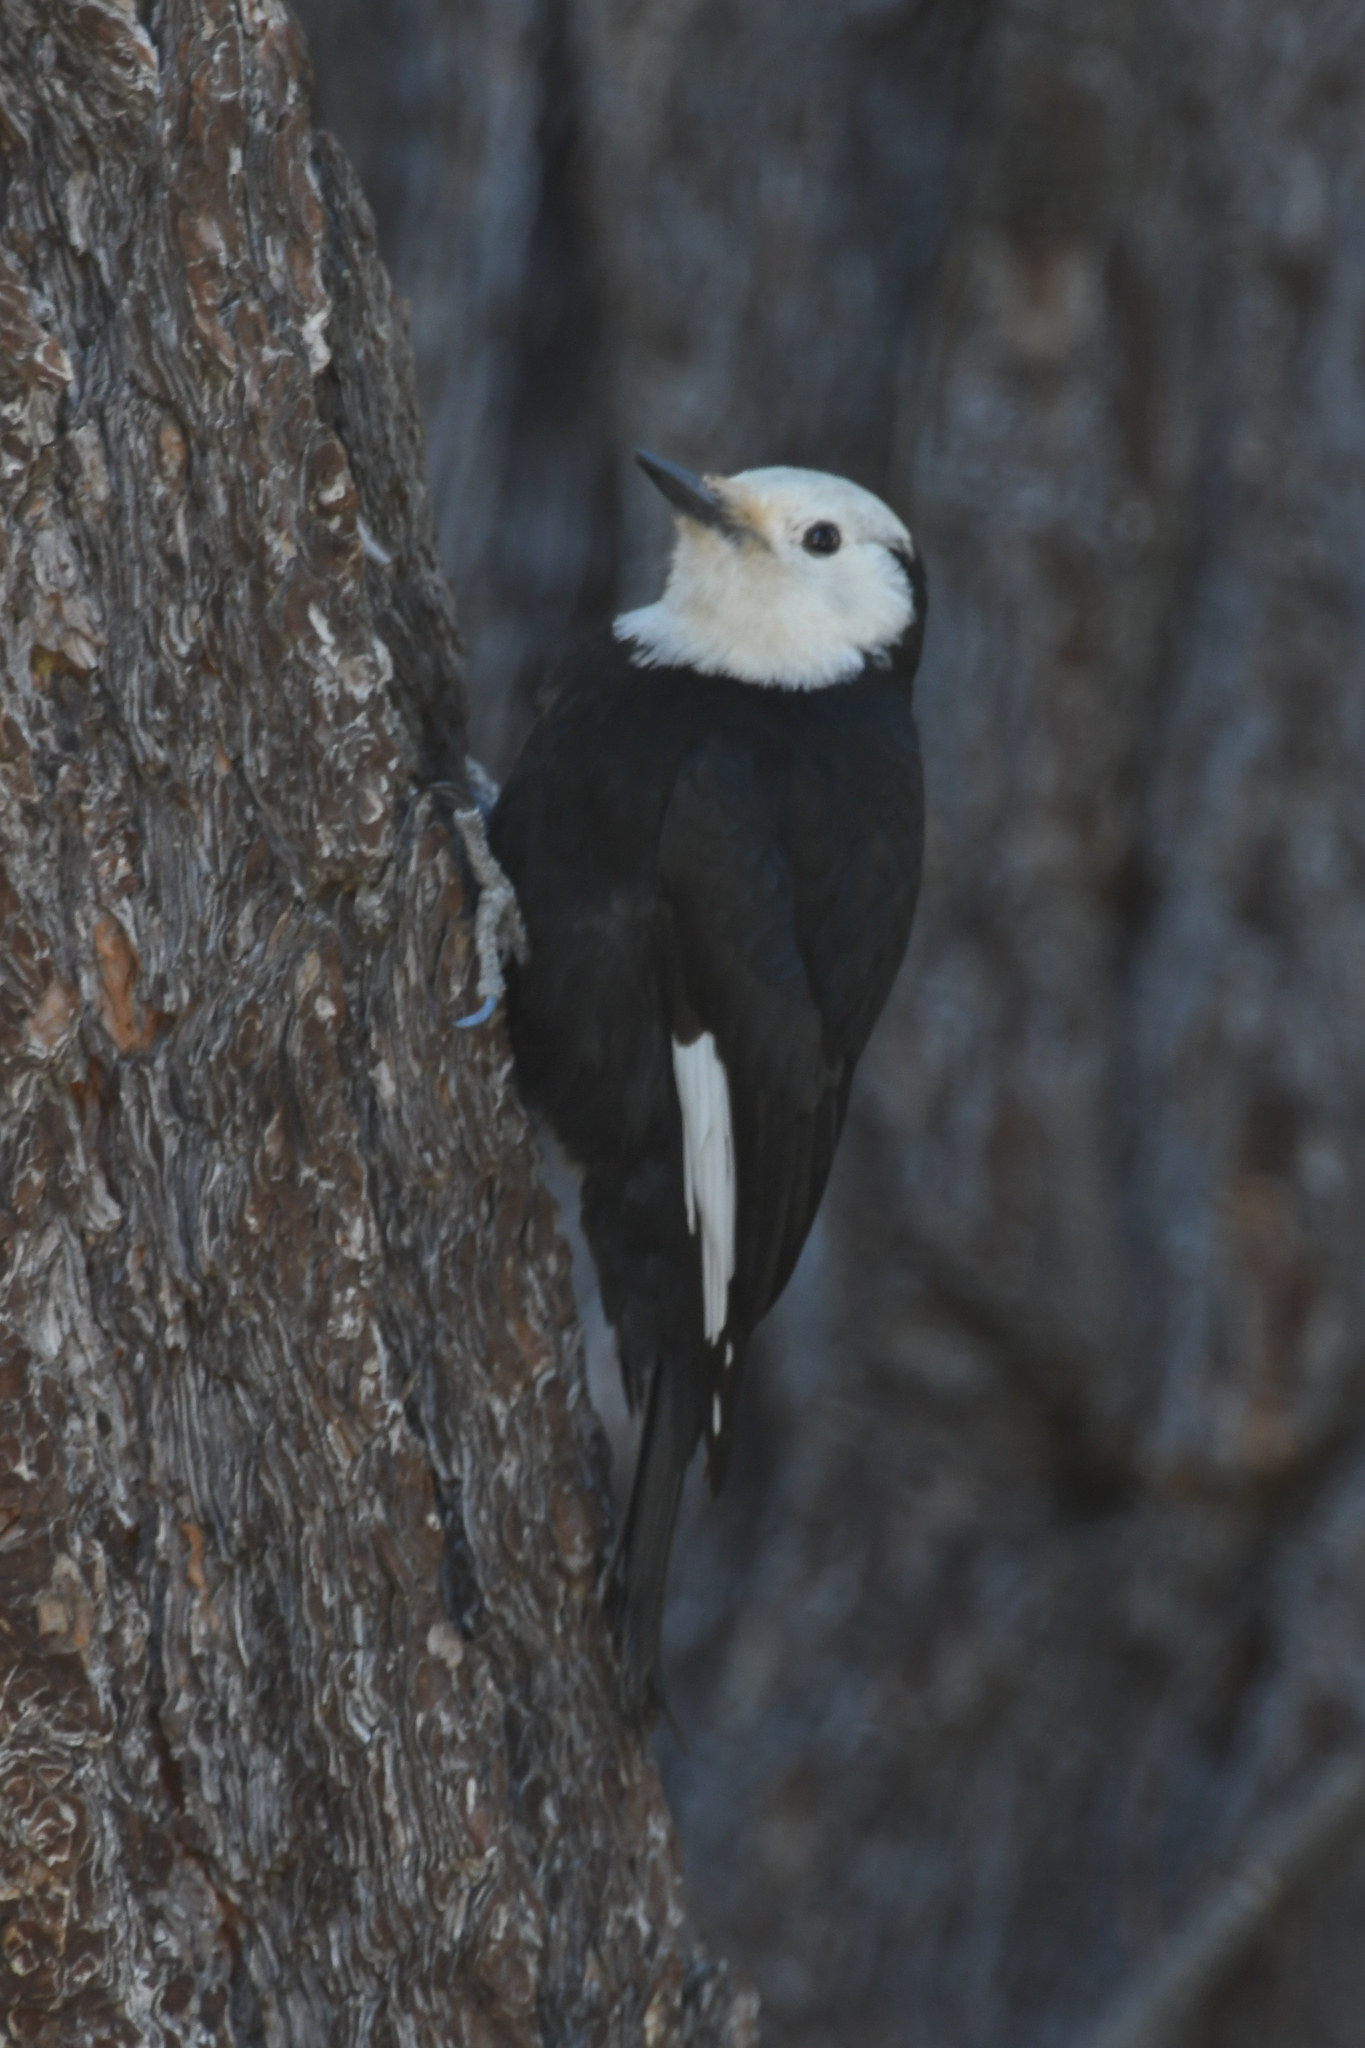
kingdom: Animalia
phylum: Chordata
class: Aves
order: Piciformes
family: Picidae
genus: Leuconotopicus
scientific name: Leuconotopicus albolarvatus
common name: White-headed woodpecker
